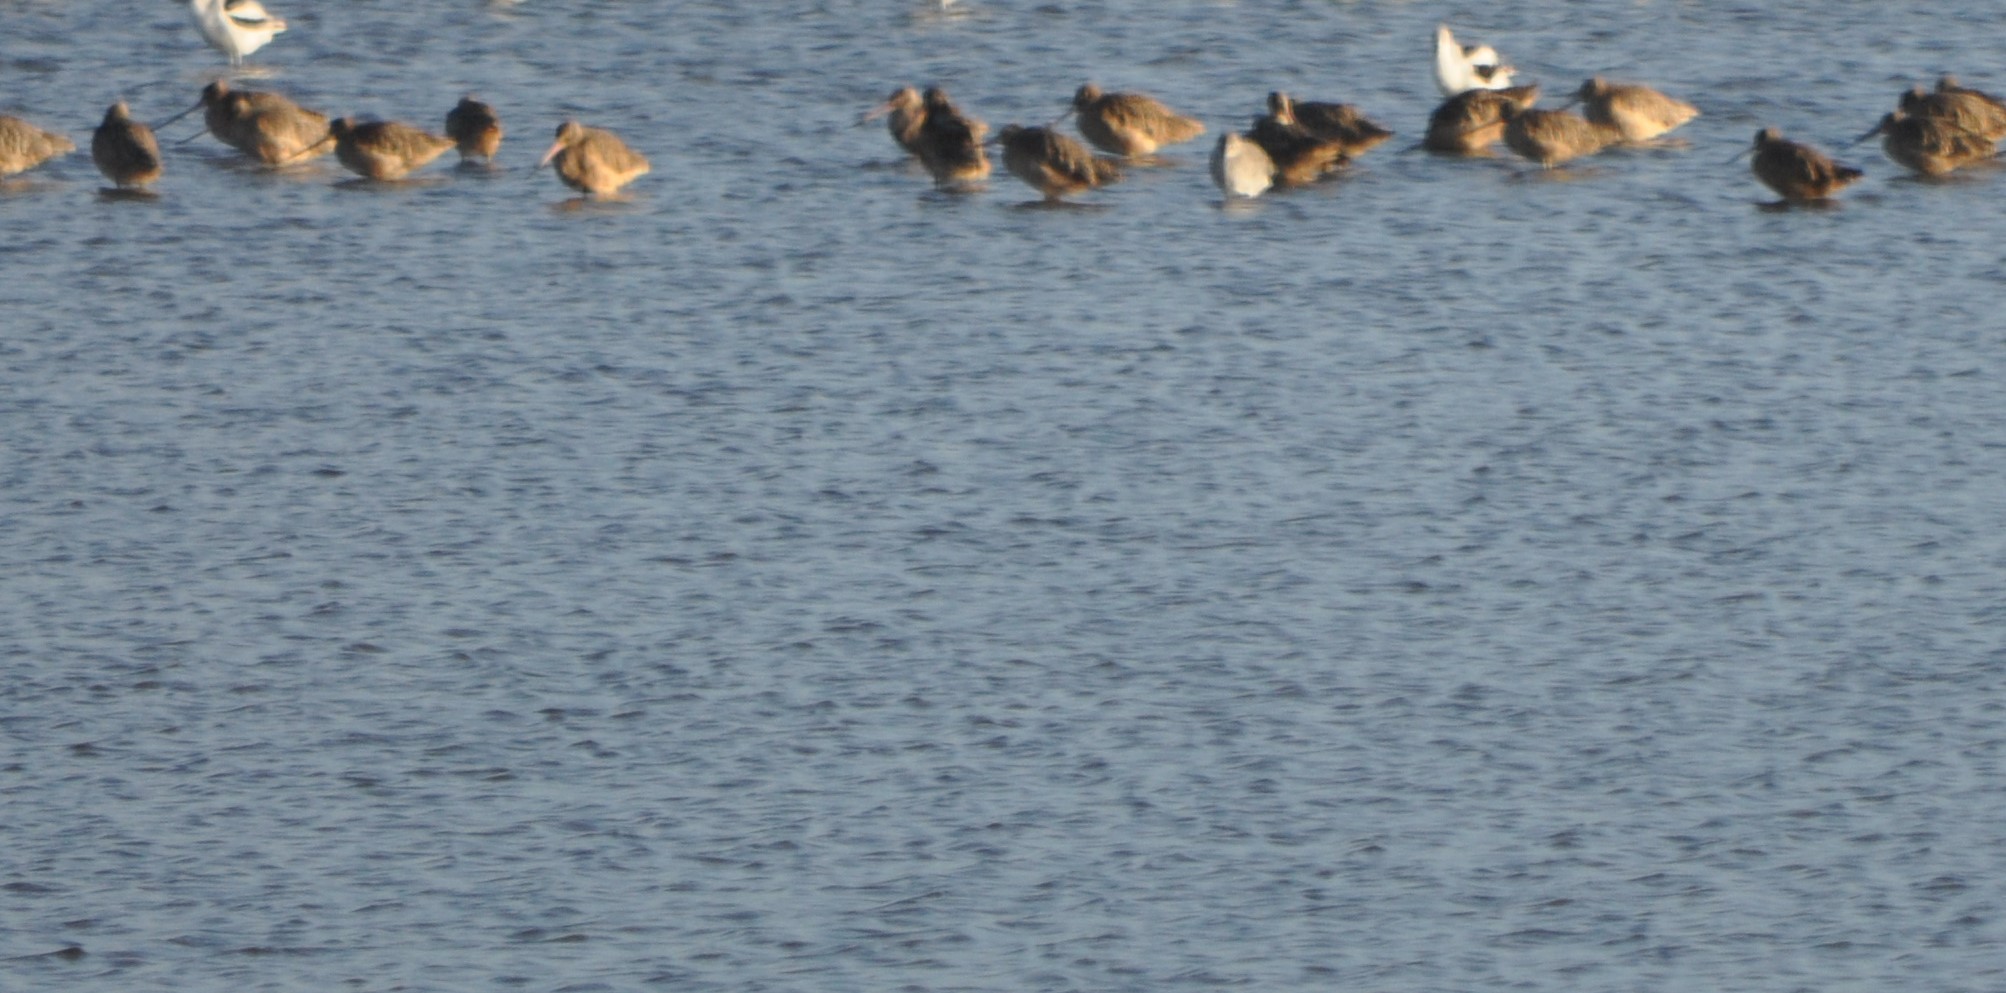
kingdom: Animalia
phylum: Chordata
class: Aves
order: Charadriiformes
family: Scolopacidae
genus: Limosa
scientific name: Limosa fedoa
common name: Marbled godwit
